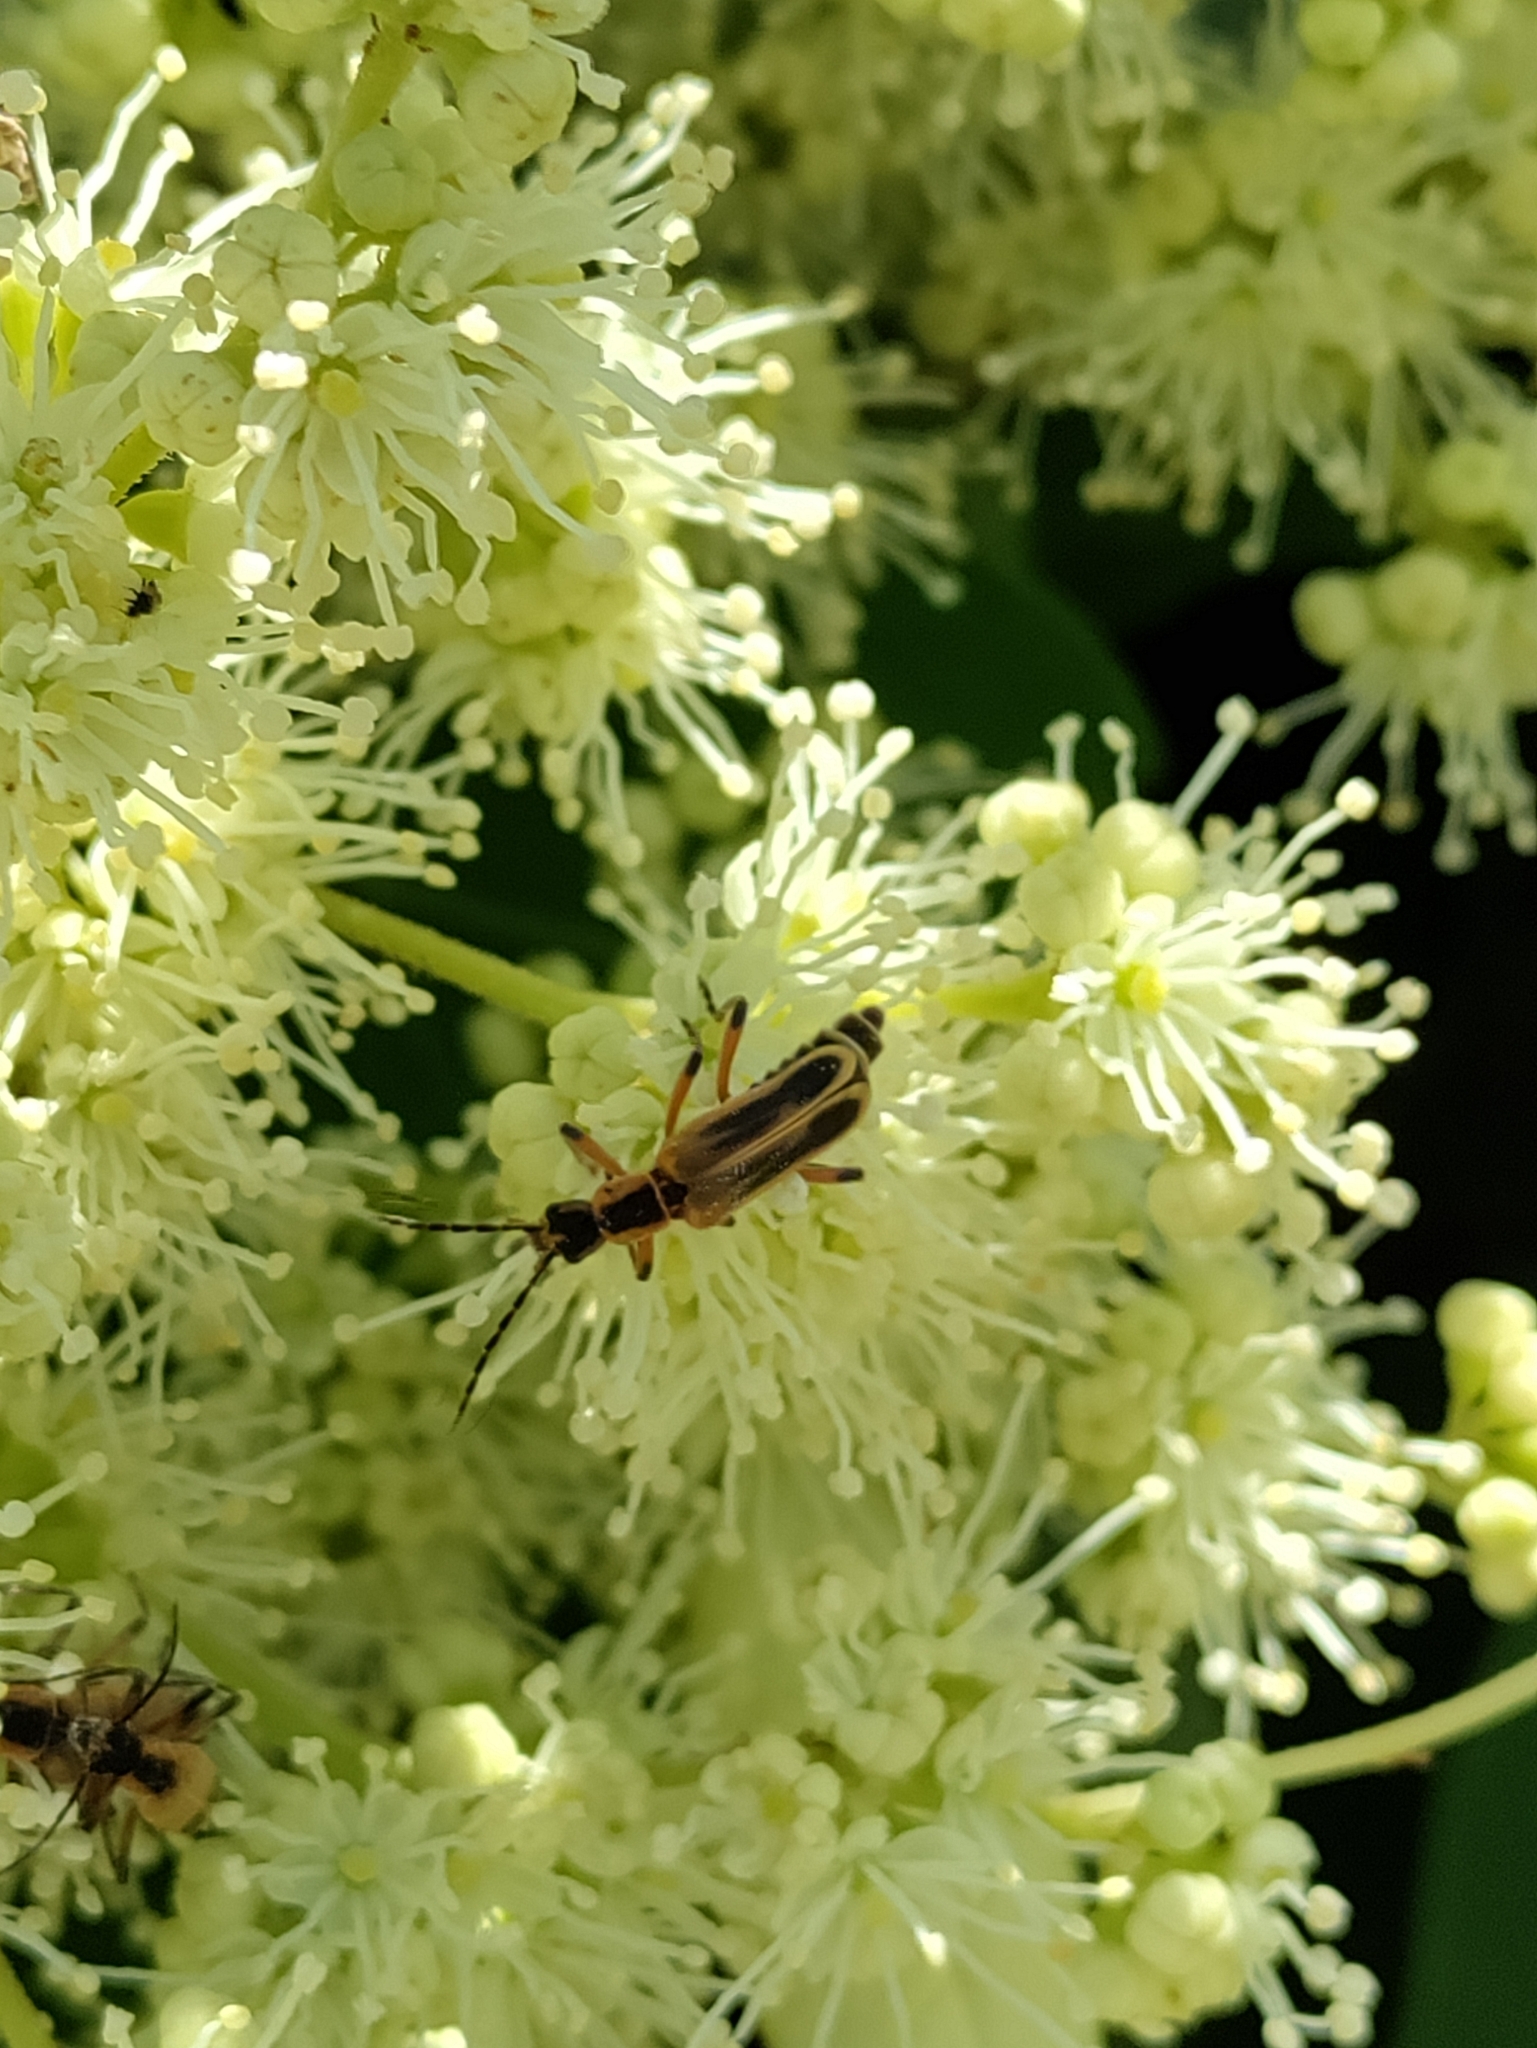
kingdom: Animalia
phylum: Arthropoda
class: Insecta
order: Coleoptera
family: Cantharidae
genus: Chauliognathus
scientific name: Chauliognathus marginatus
